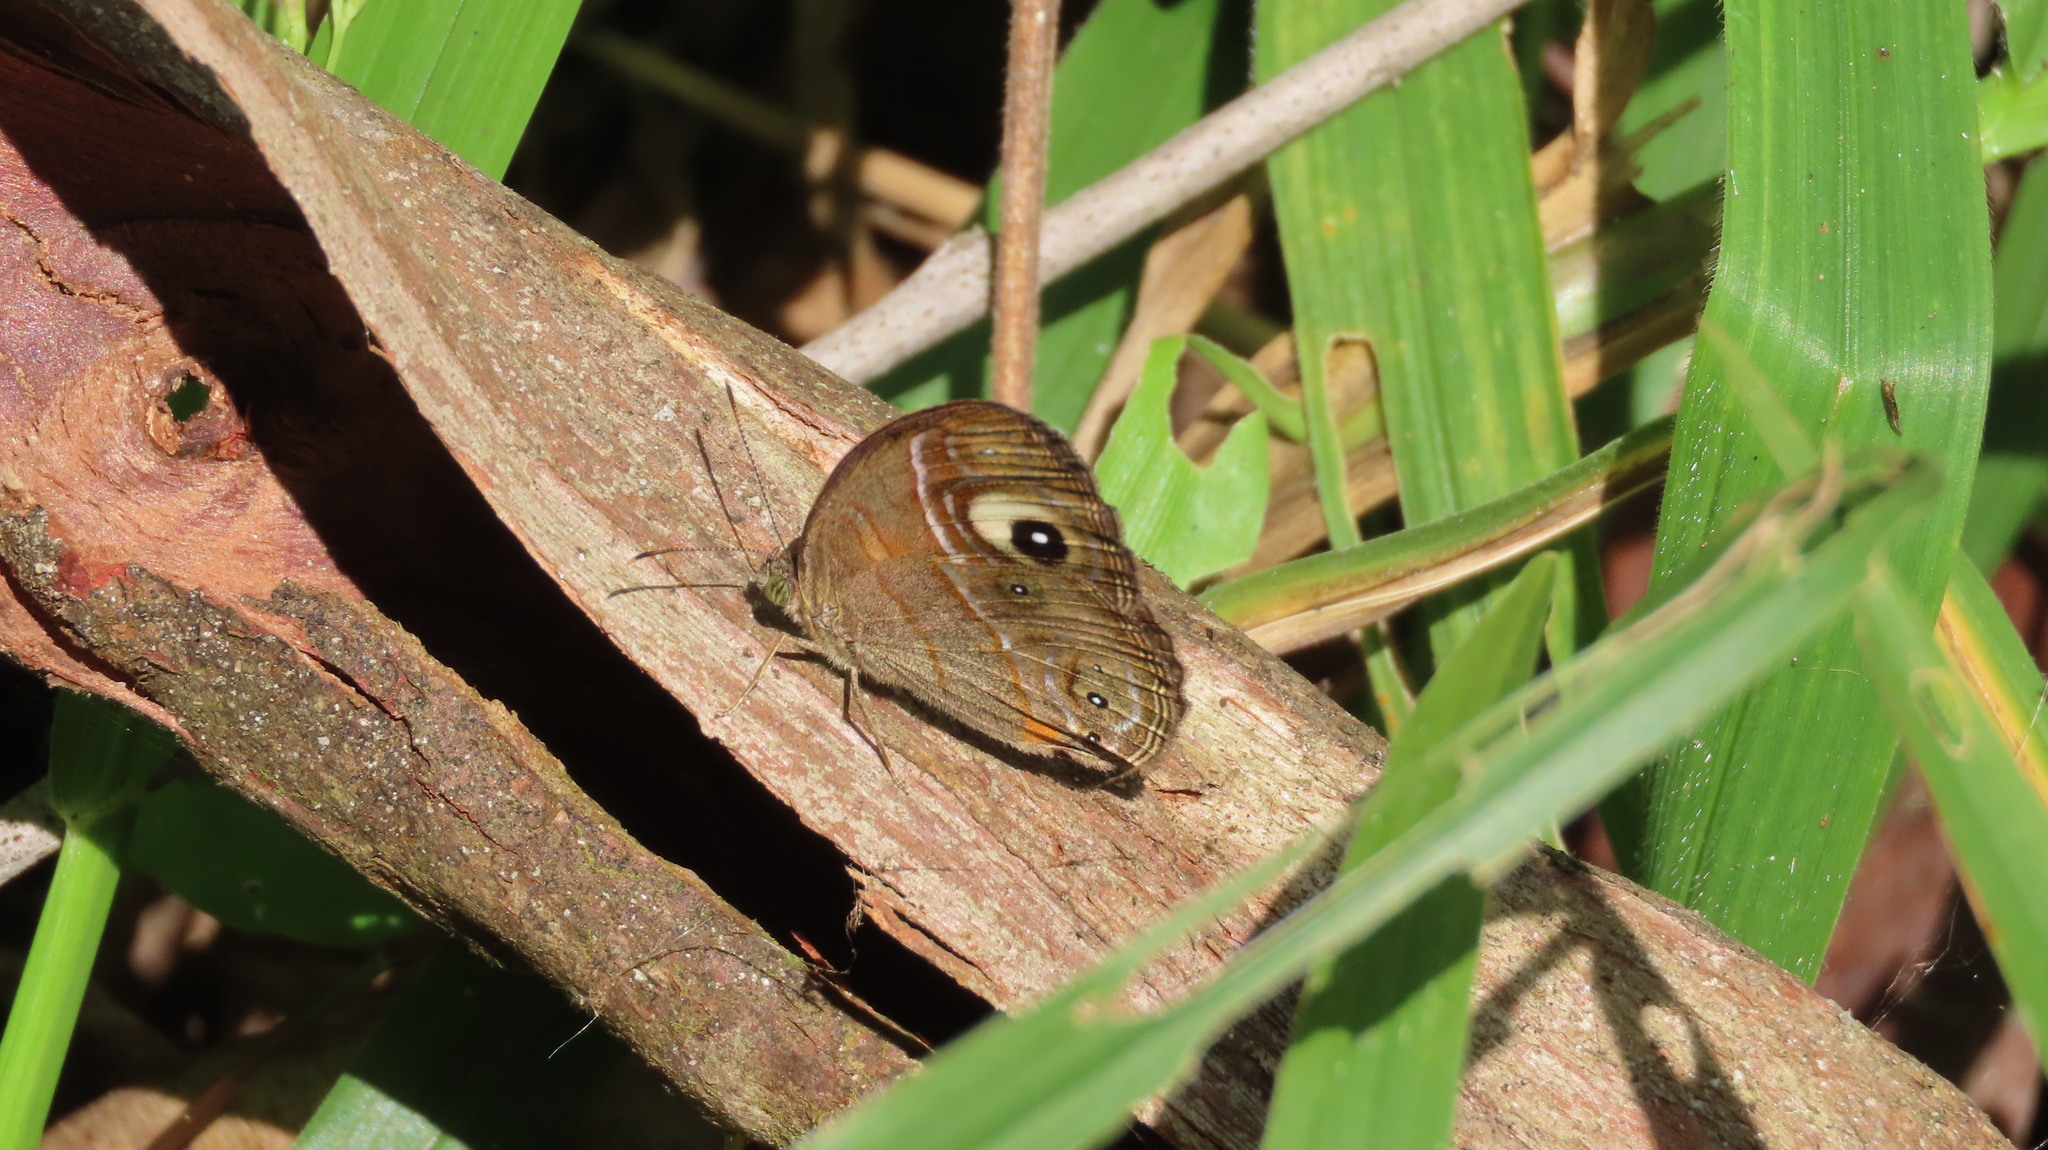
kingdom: Animalia
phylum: Arthropoda
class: Insecta
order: Lepidoptera
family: Nymphalidae
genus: Mycalesis
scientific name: Mycalesis patnia
